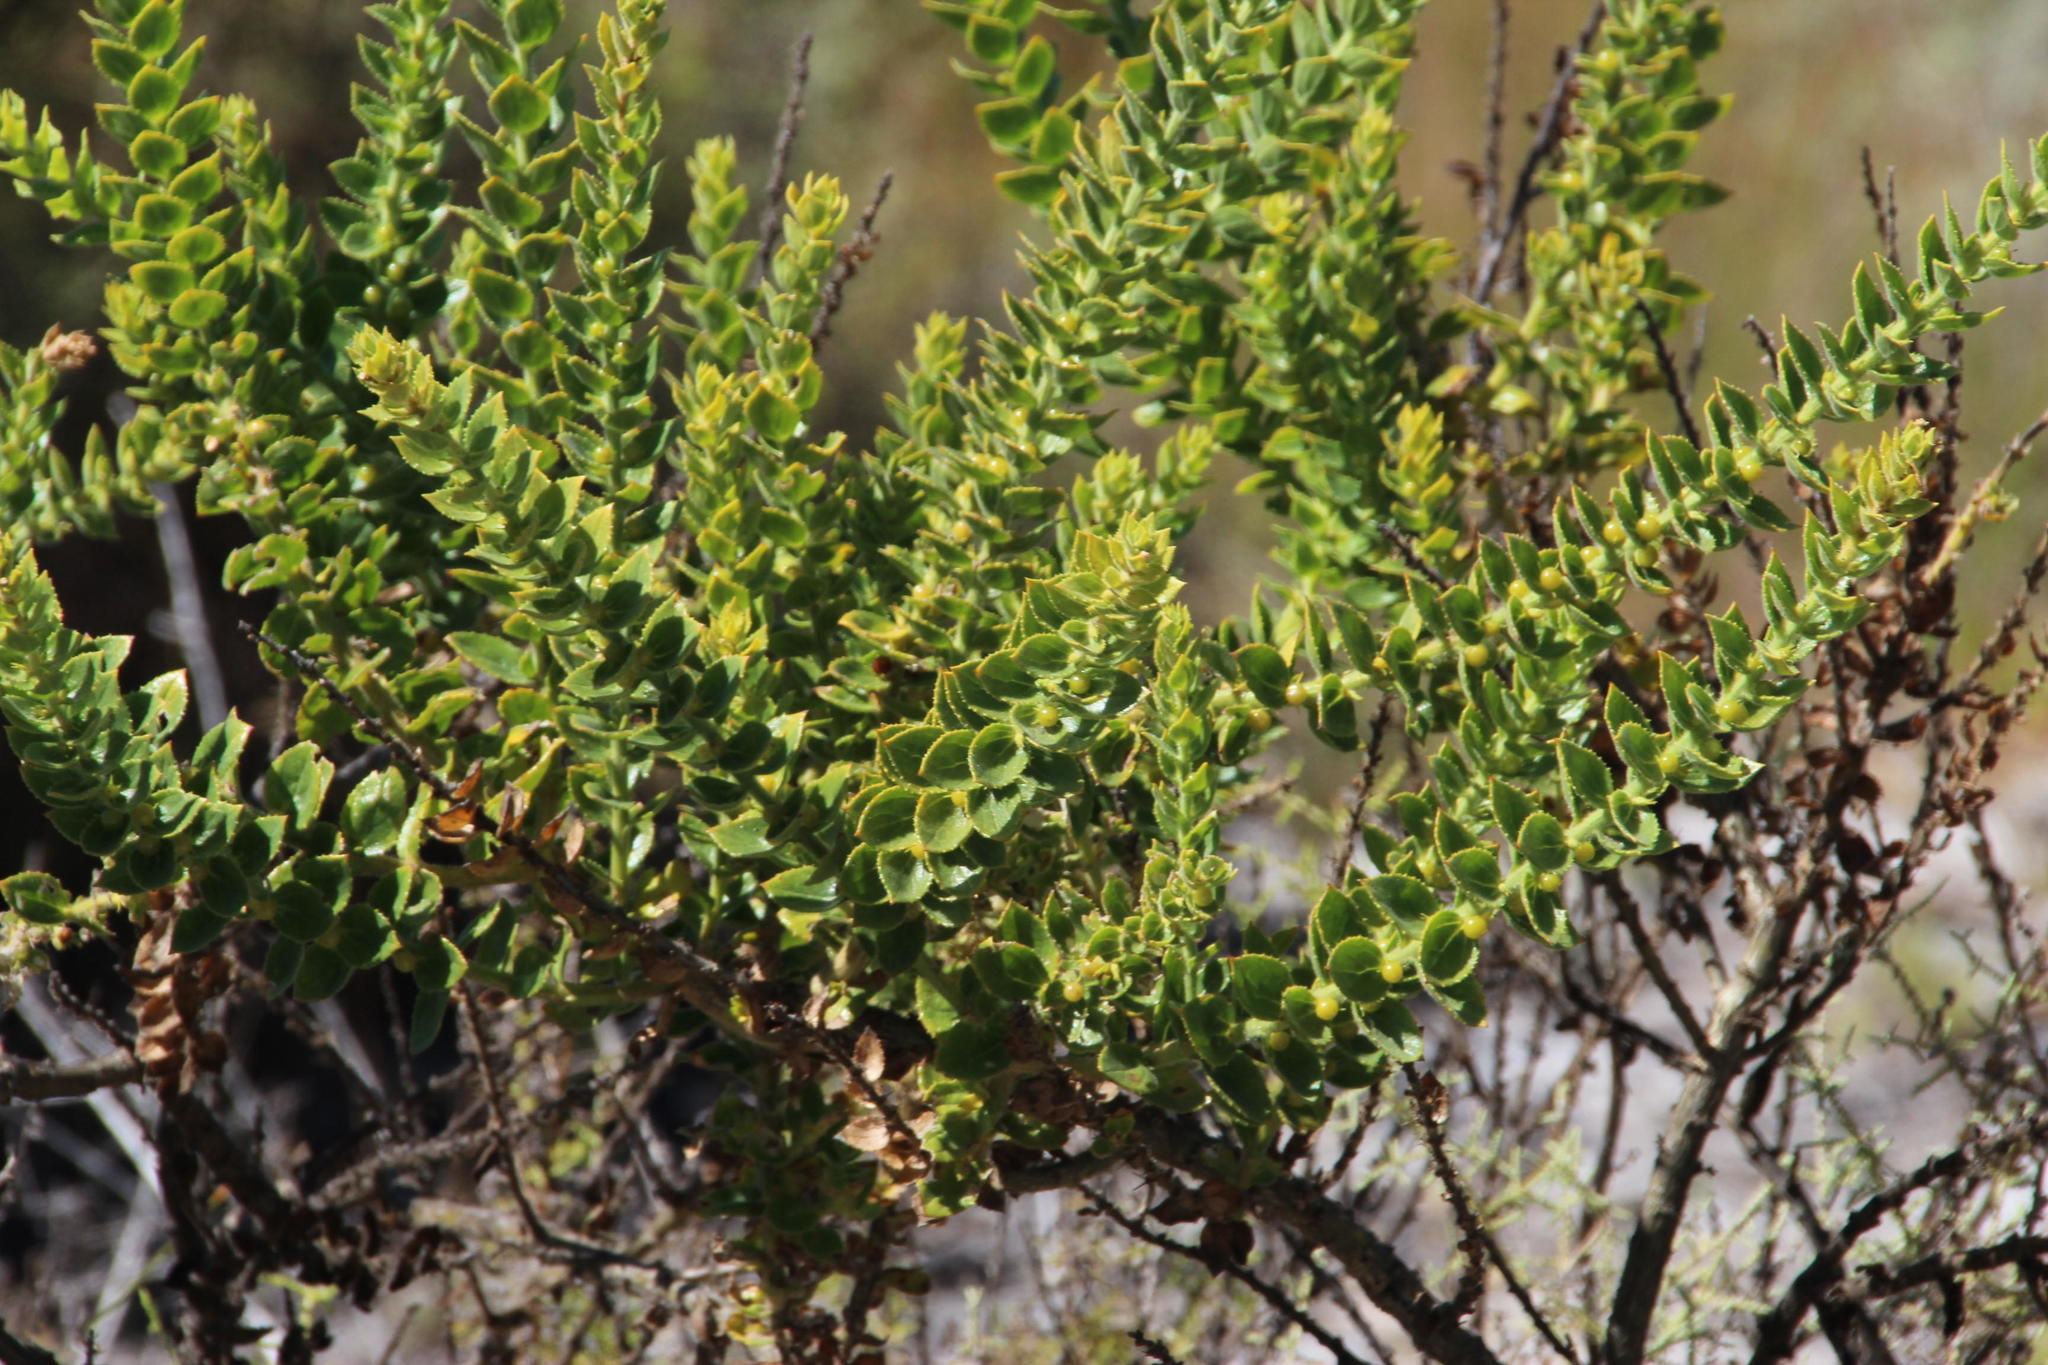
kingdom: Plantae
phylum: Tracheophyta
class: Magnoliopsida
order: Lamiales
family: Scrophulariaceae
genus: Oftia
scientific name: Oftia africana
